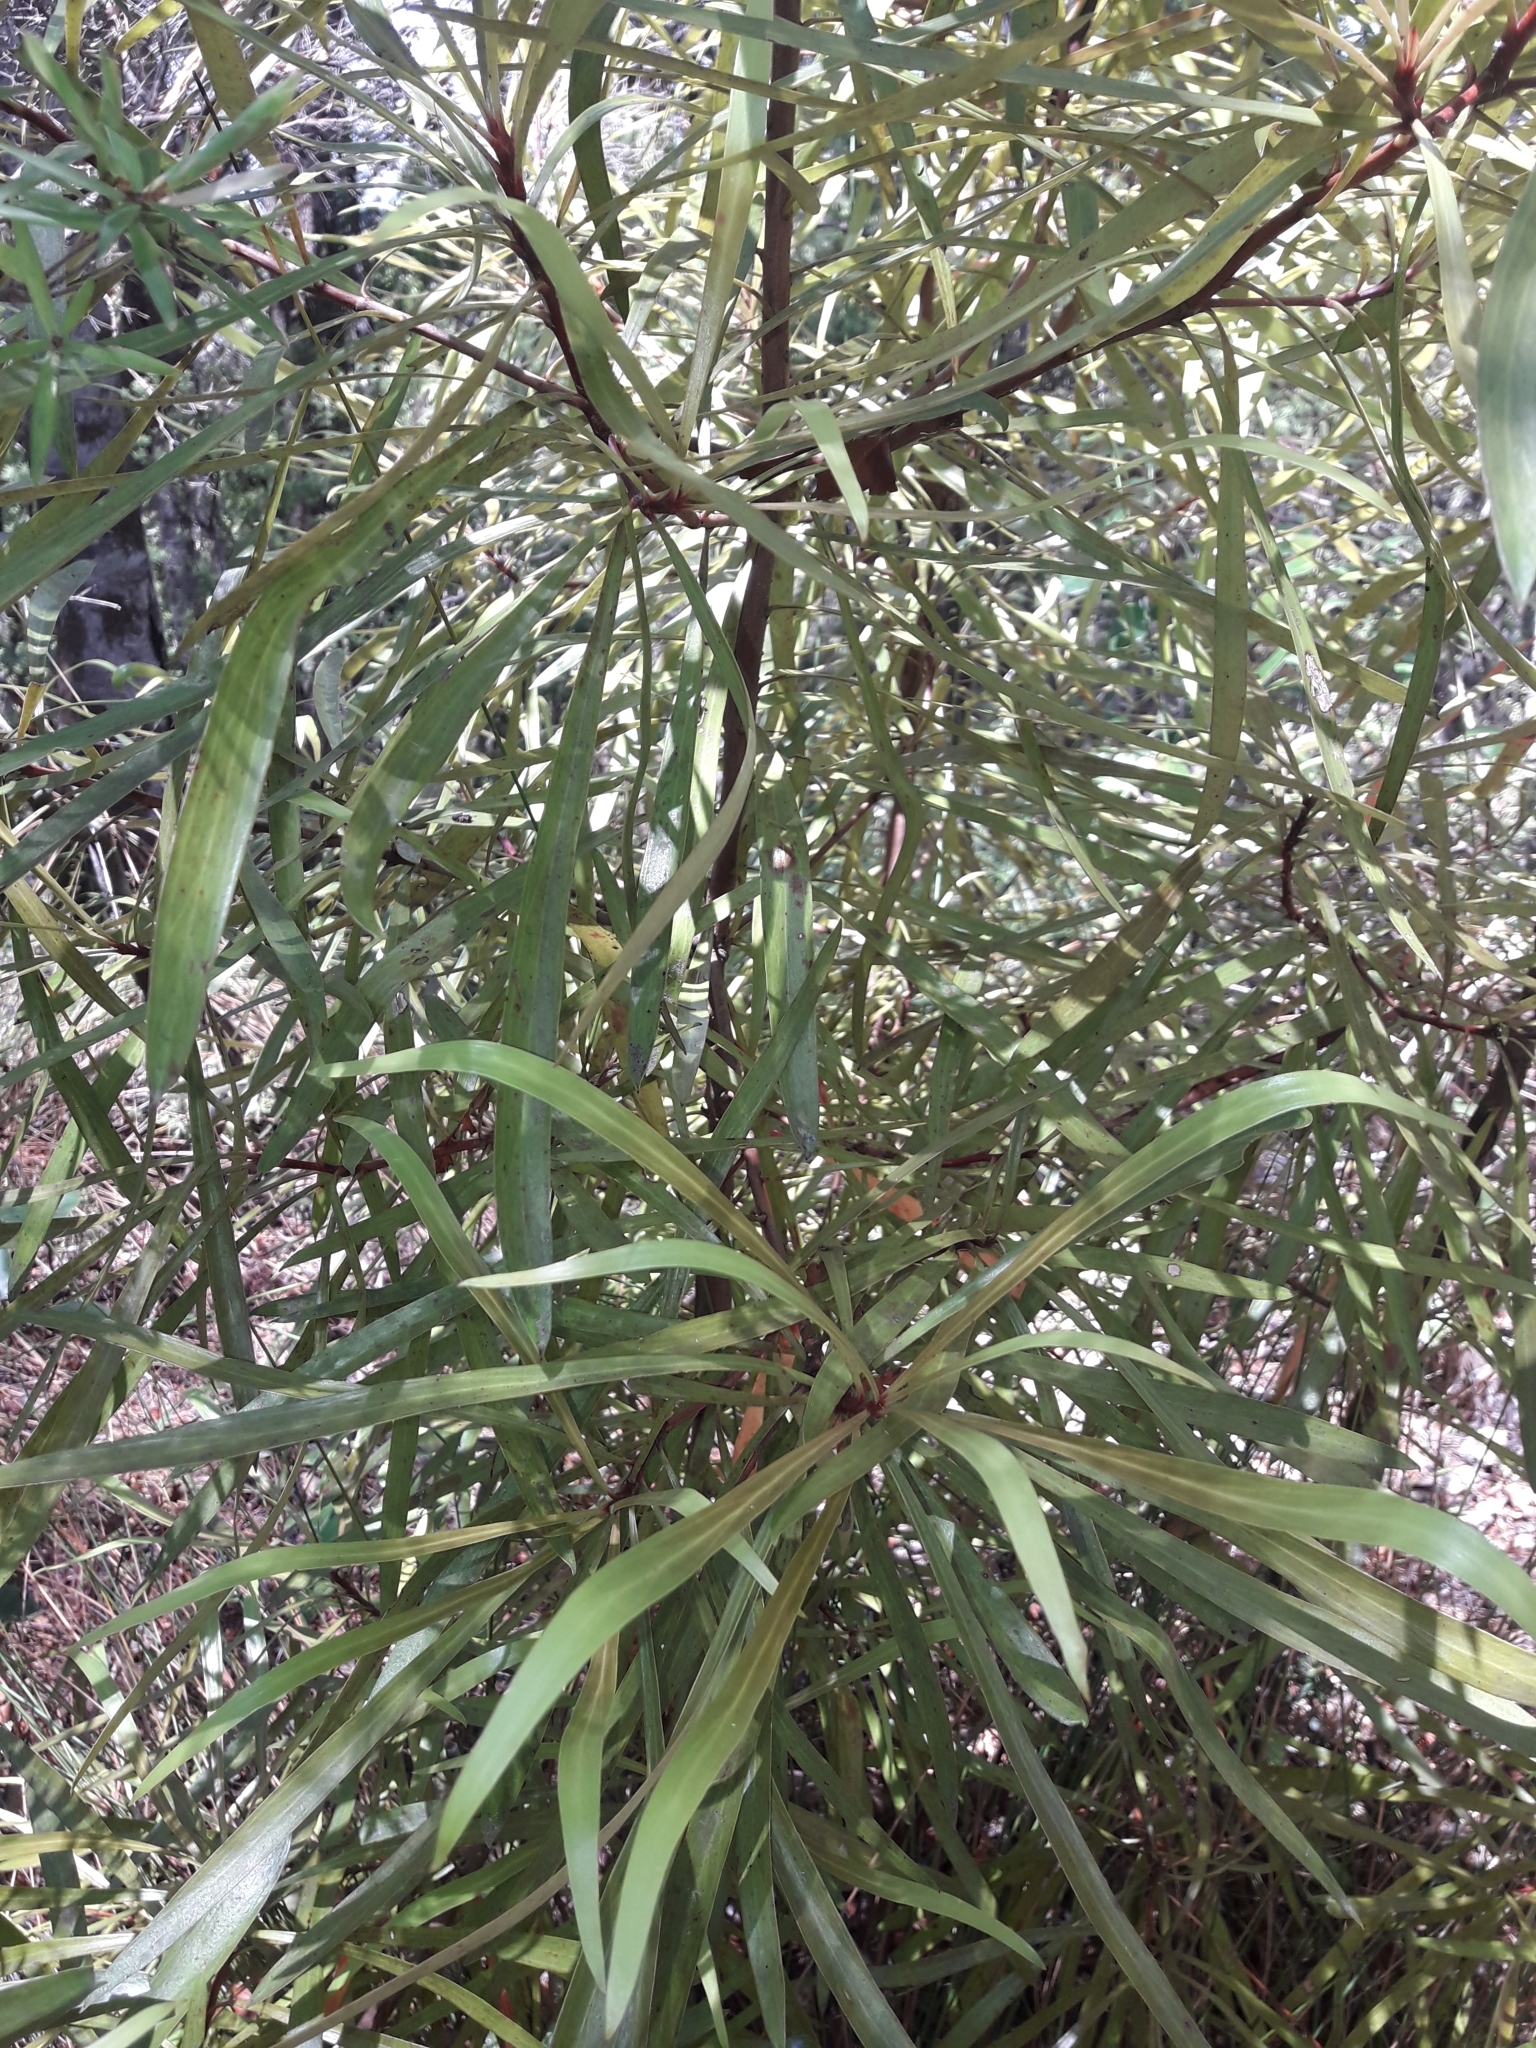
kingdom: Plantae
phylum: Tracheophyta
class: Magnoliopsida
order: Proteales
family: Proteaceae
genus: Toronia
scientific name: Toronia toru
